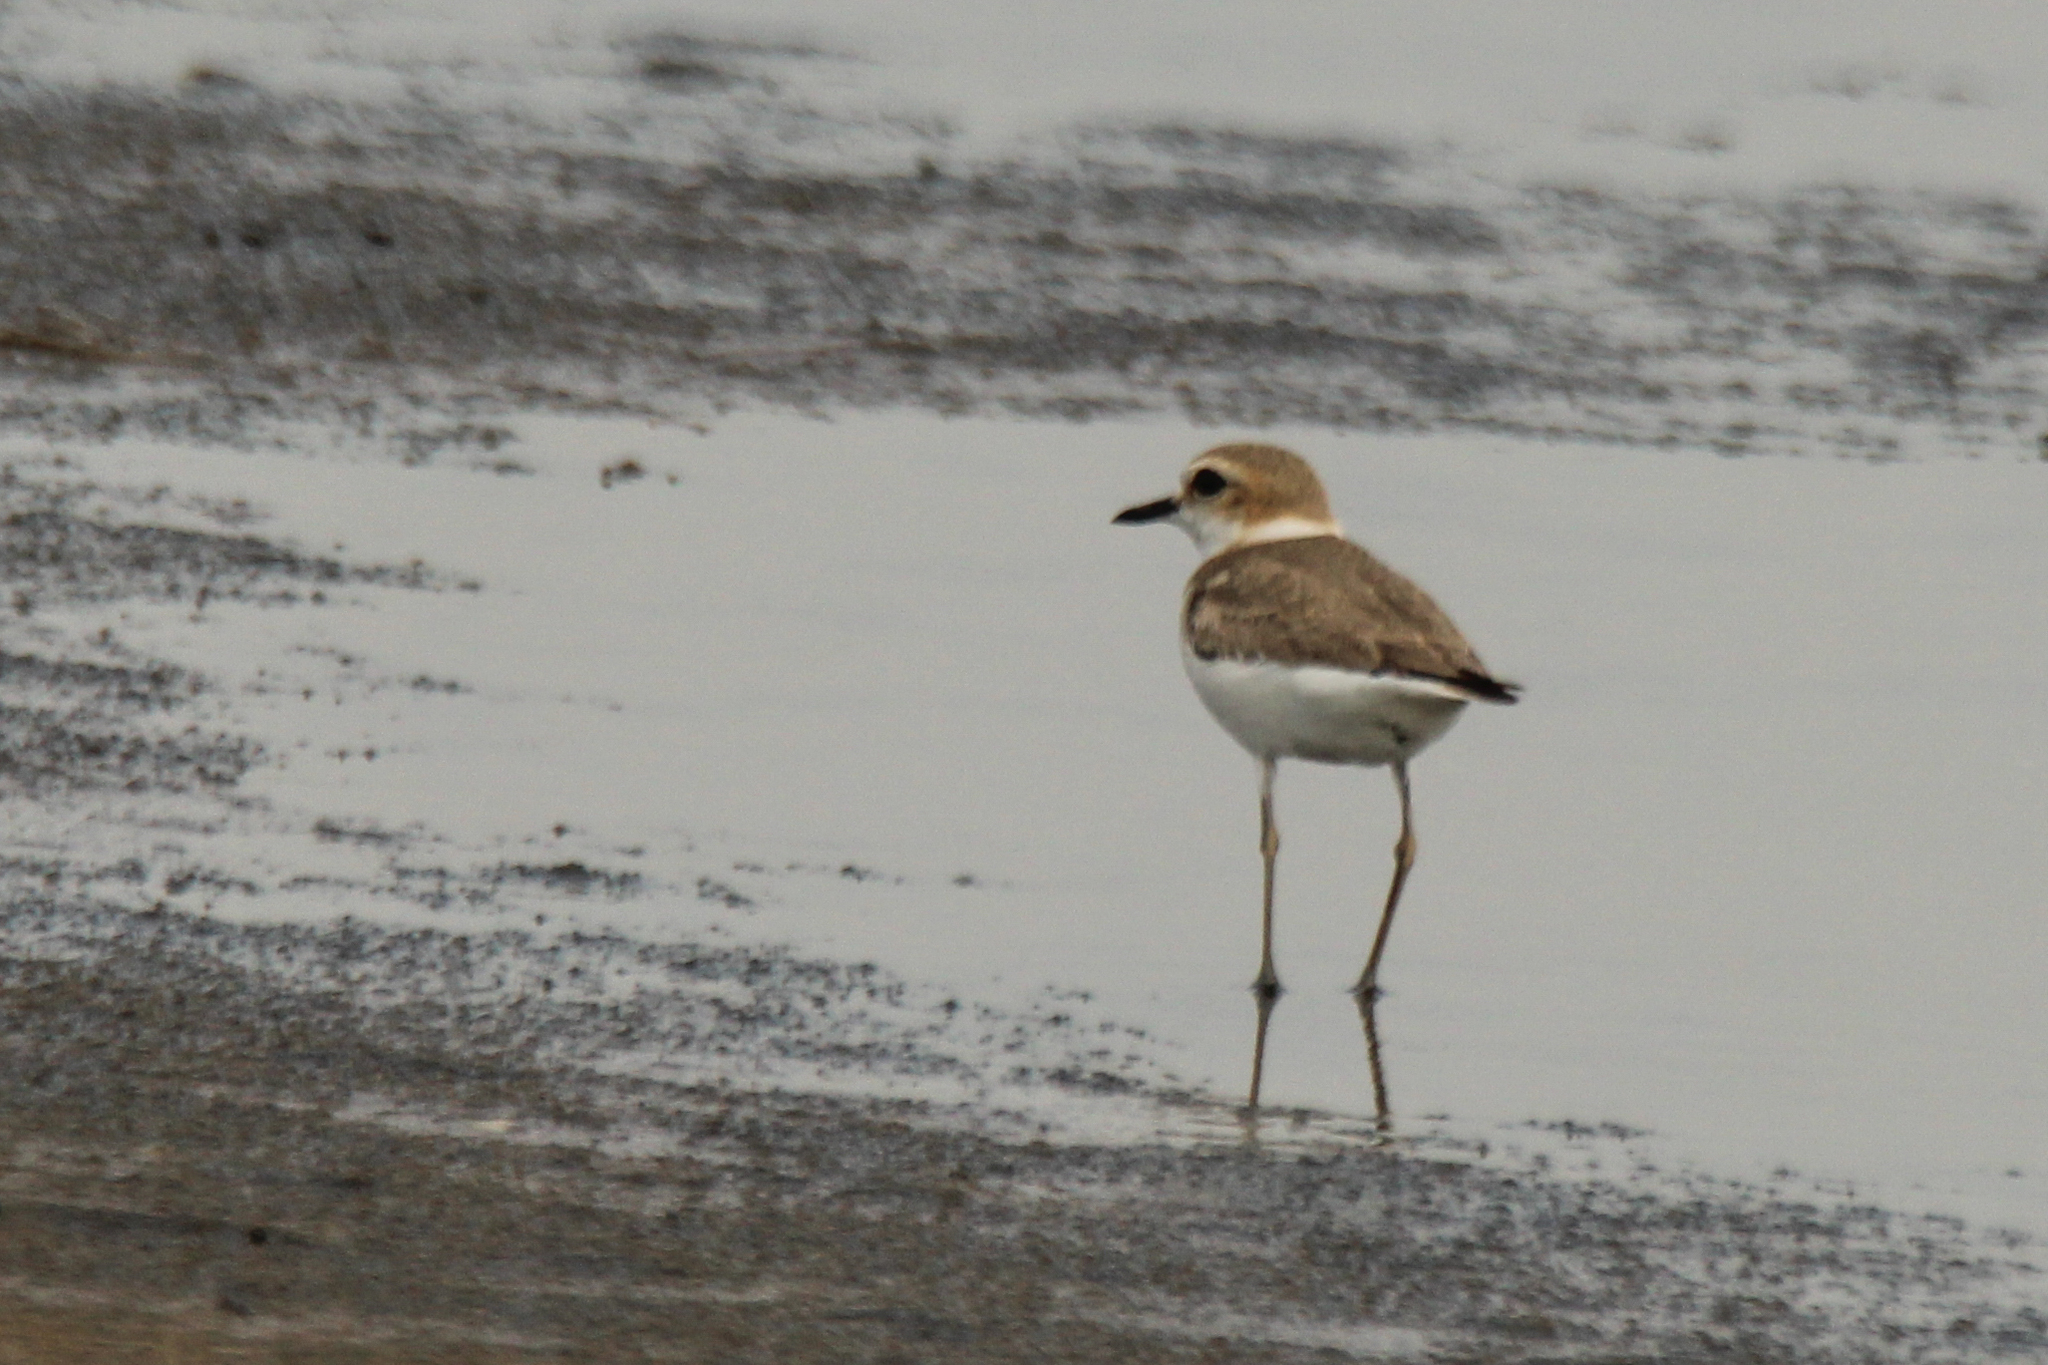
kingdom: Animalia
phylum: Chordata
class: Aves
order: Charadriiformes
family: Charadriidae
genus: Charadrius
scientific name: Charadrius alexandrinus
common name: Kentish plover
